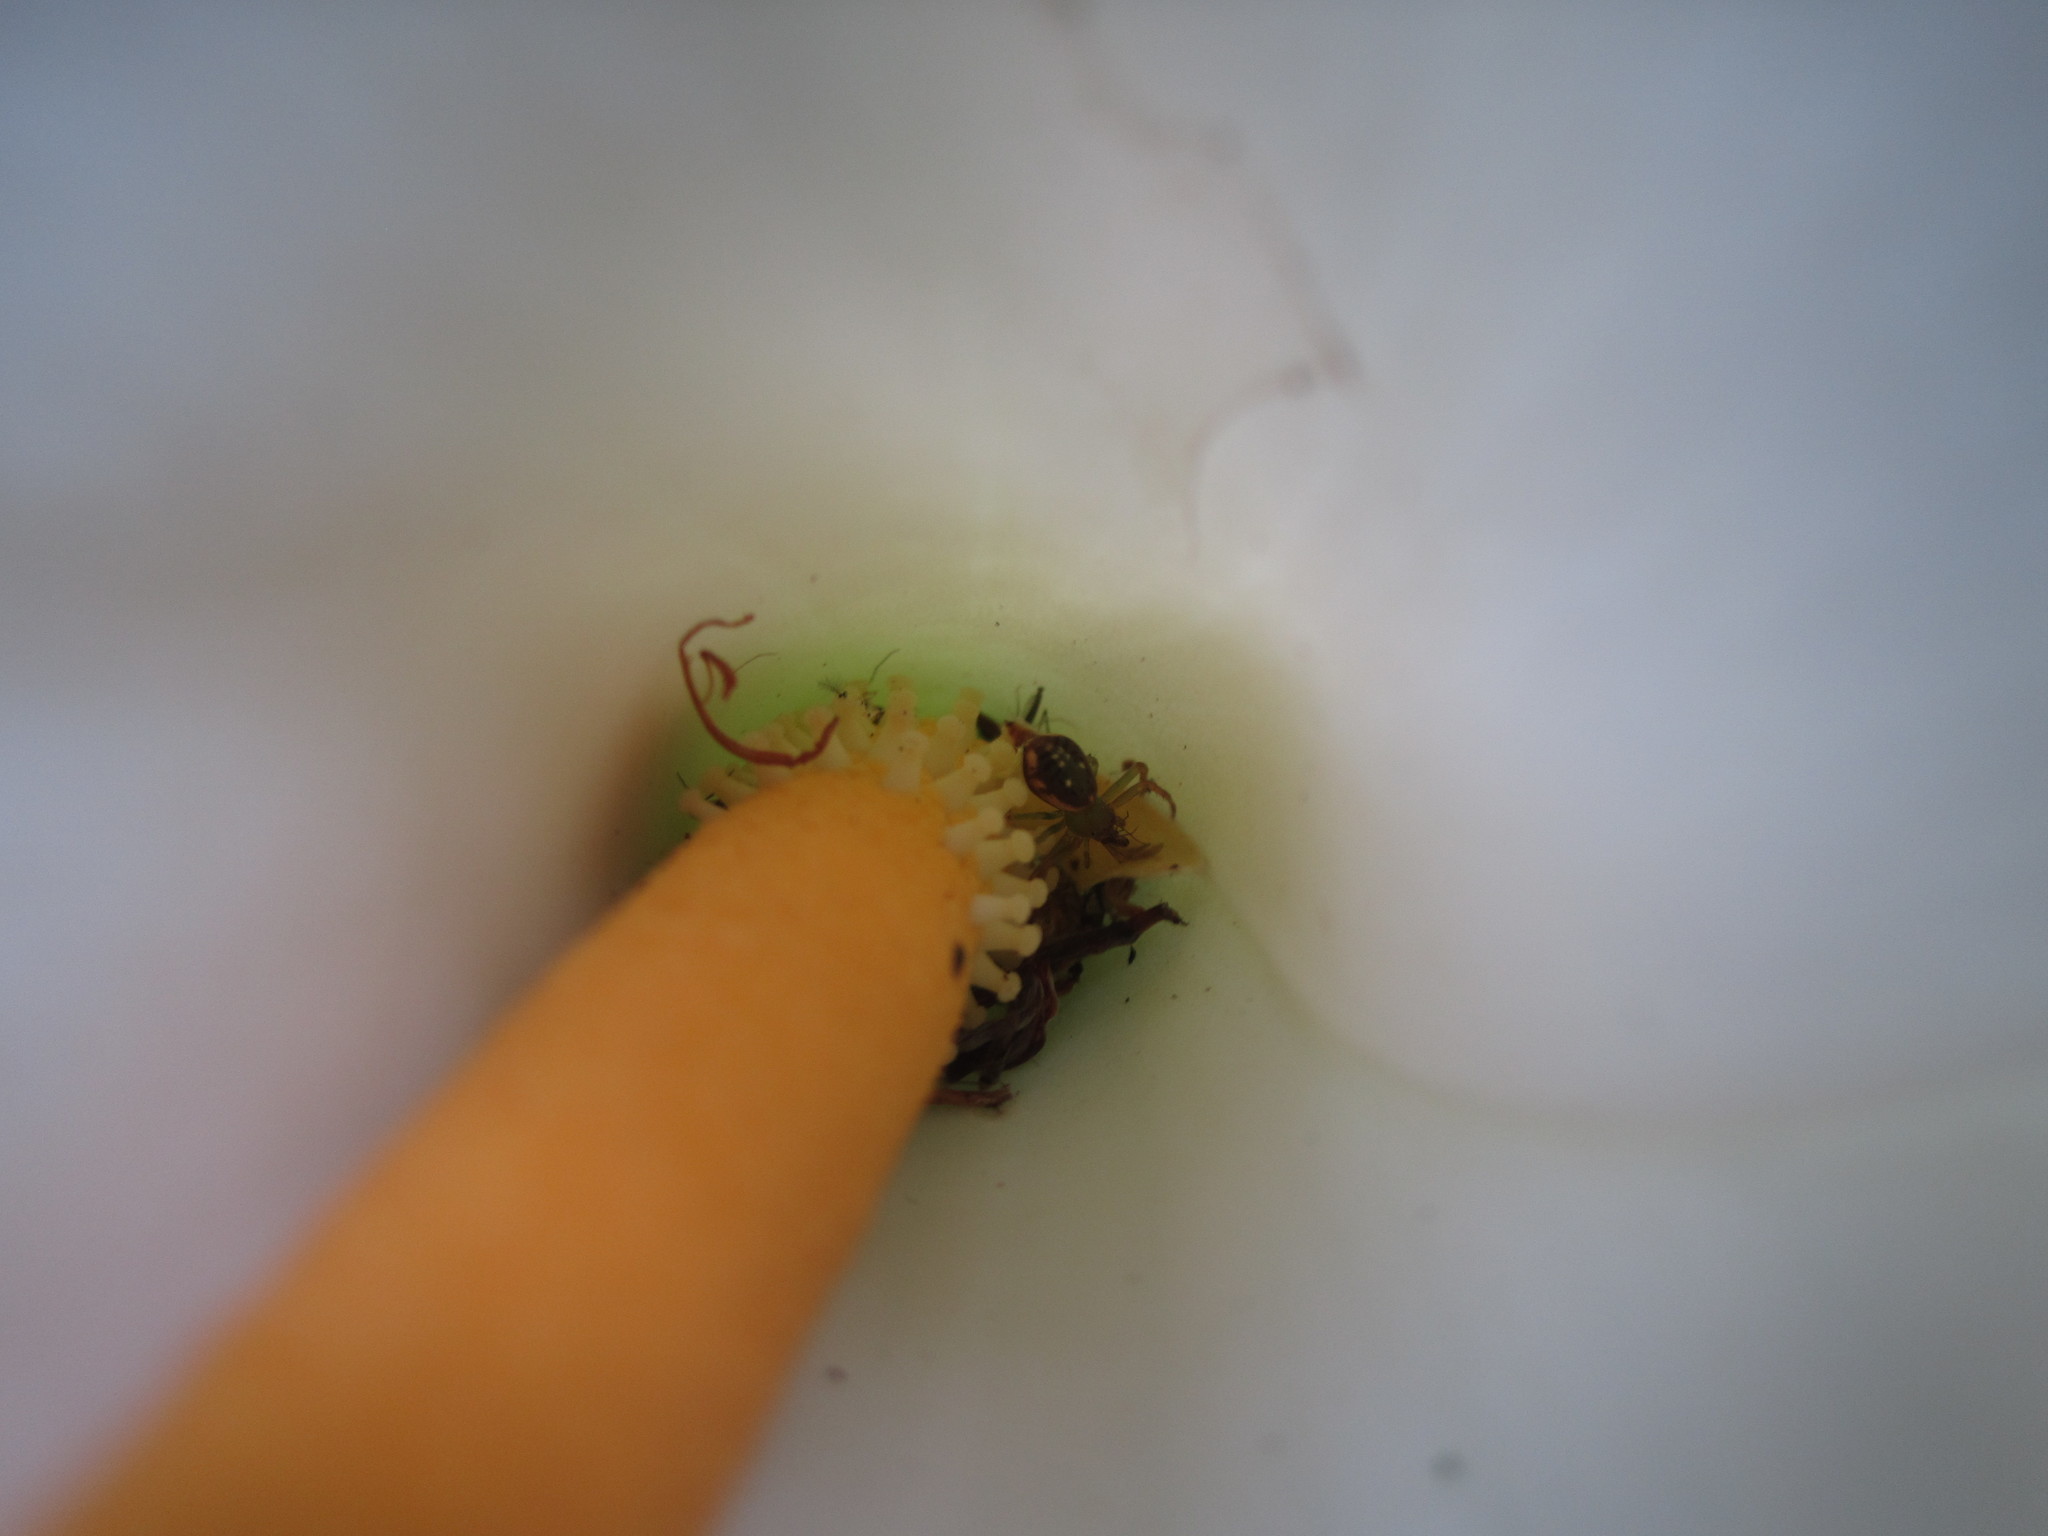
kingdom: Animalia
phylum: Arthropoda
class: Arachnida
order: Araneae
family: Thomisidae
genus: Diaea
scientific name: Diaea ambara
